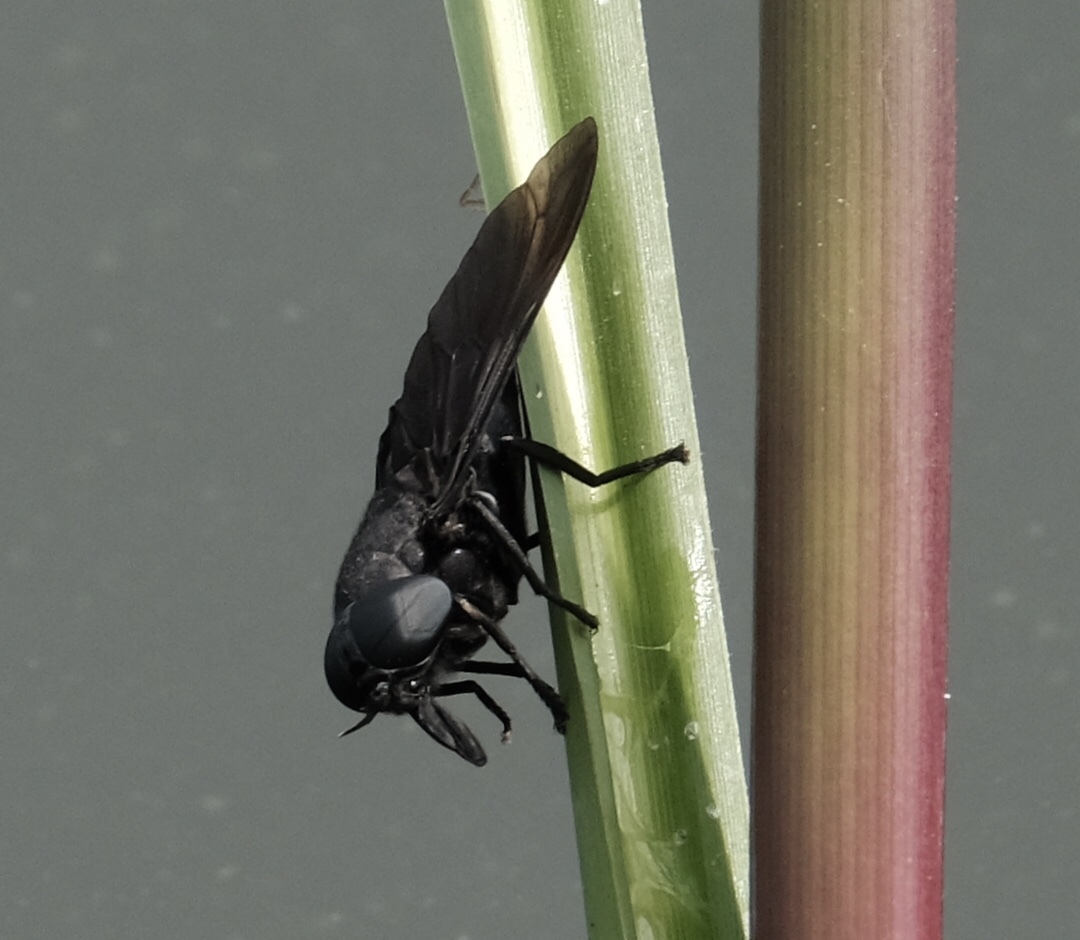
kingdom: Animalia
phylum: Arthropoda
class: Insecta
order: Diptera
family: Tabanidae
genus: Tabanus
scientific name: Tabanus atratus
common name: Black horse fly
